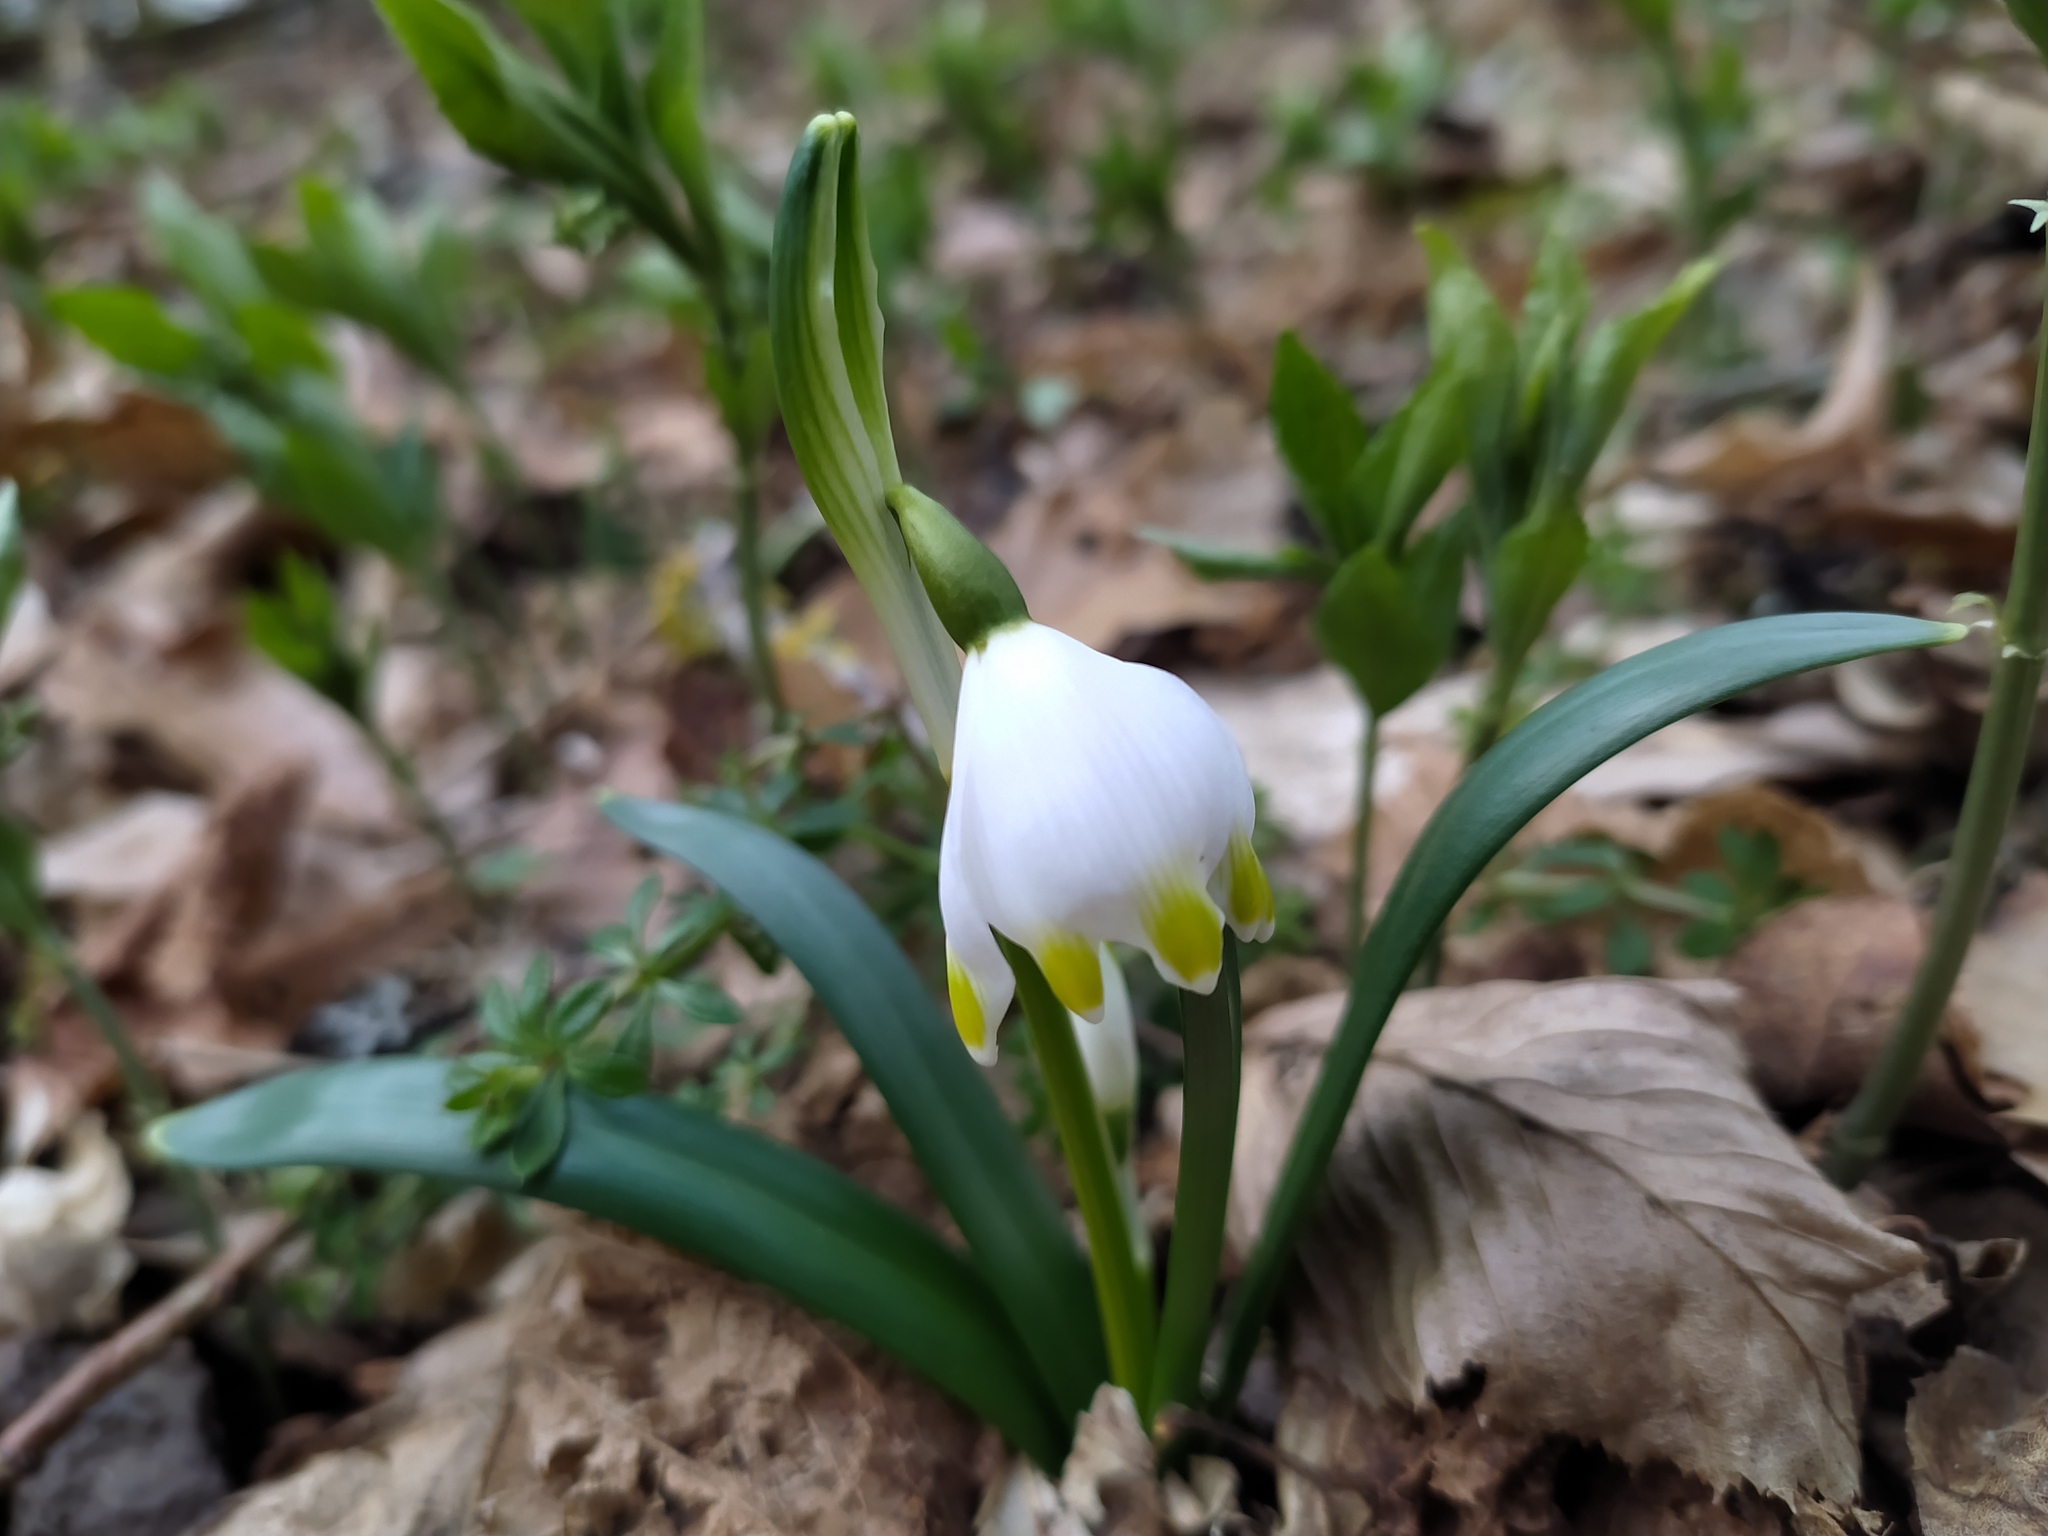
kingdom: Plantae
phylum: Tracheophyta
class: Liliopsida
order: Asparagales
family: Amaryllidaceae
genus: Leucojum
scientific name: Leucojum vernum
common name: Spring snowflake
